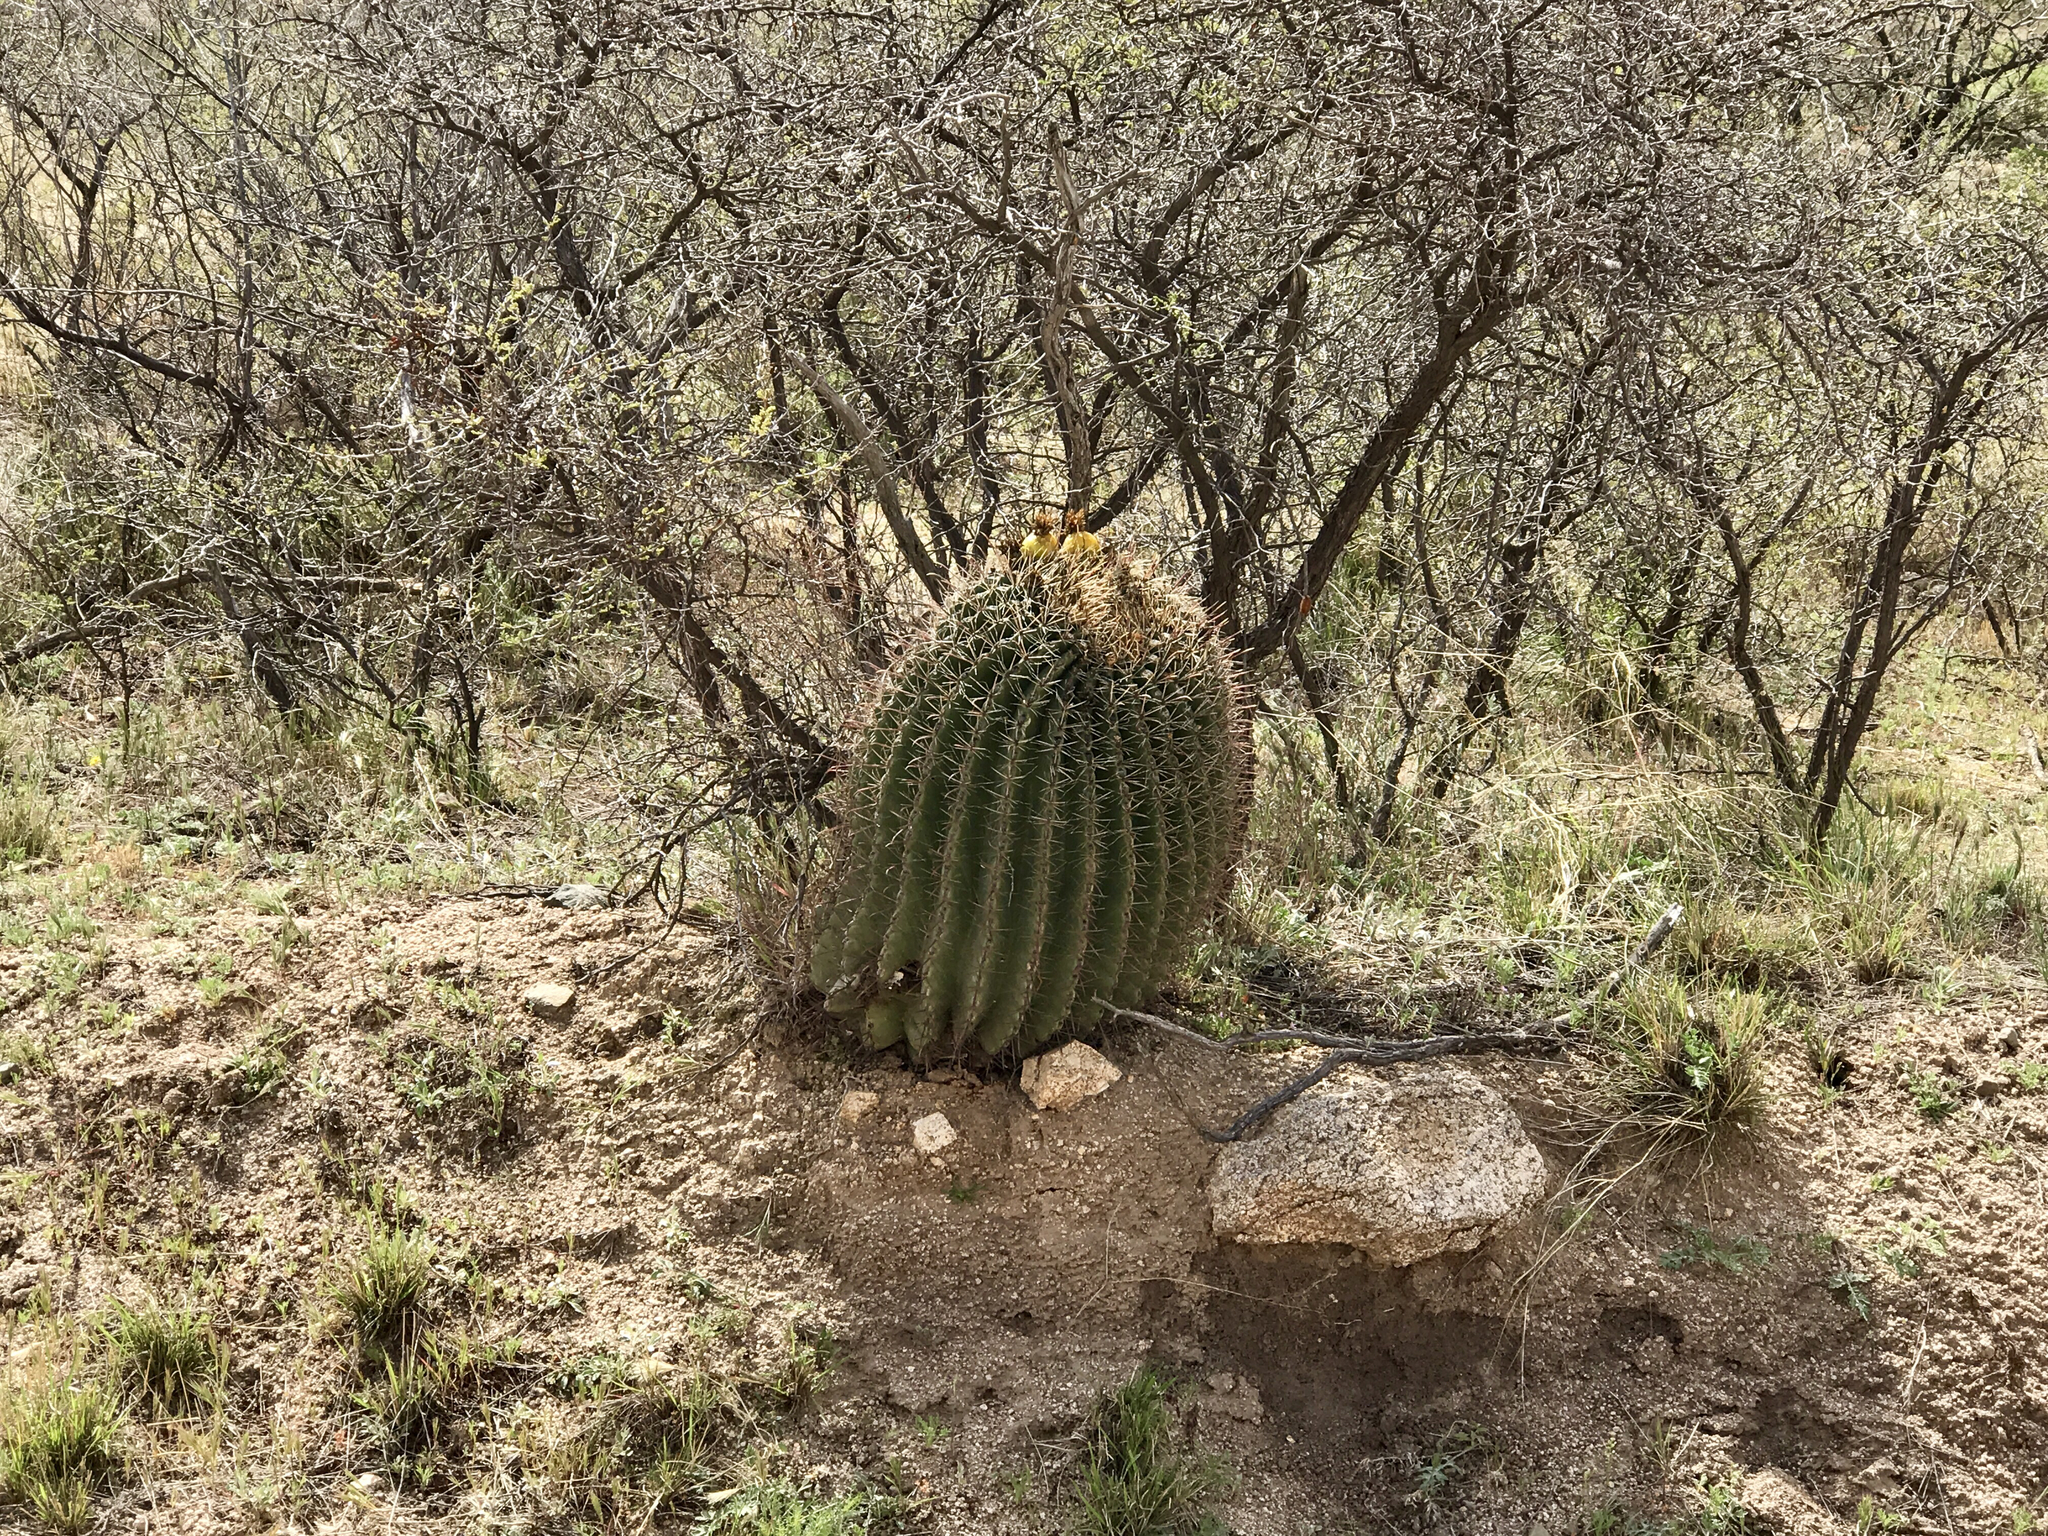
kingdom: Plantae
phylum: Tracheophyta
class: Magnoliopsida
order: Caryophyllales
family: Cactaceae
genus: Ferocactus
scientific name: Ferocactus wislizeni
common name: Candy barrel cactus
